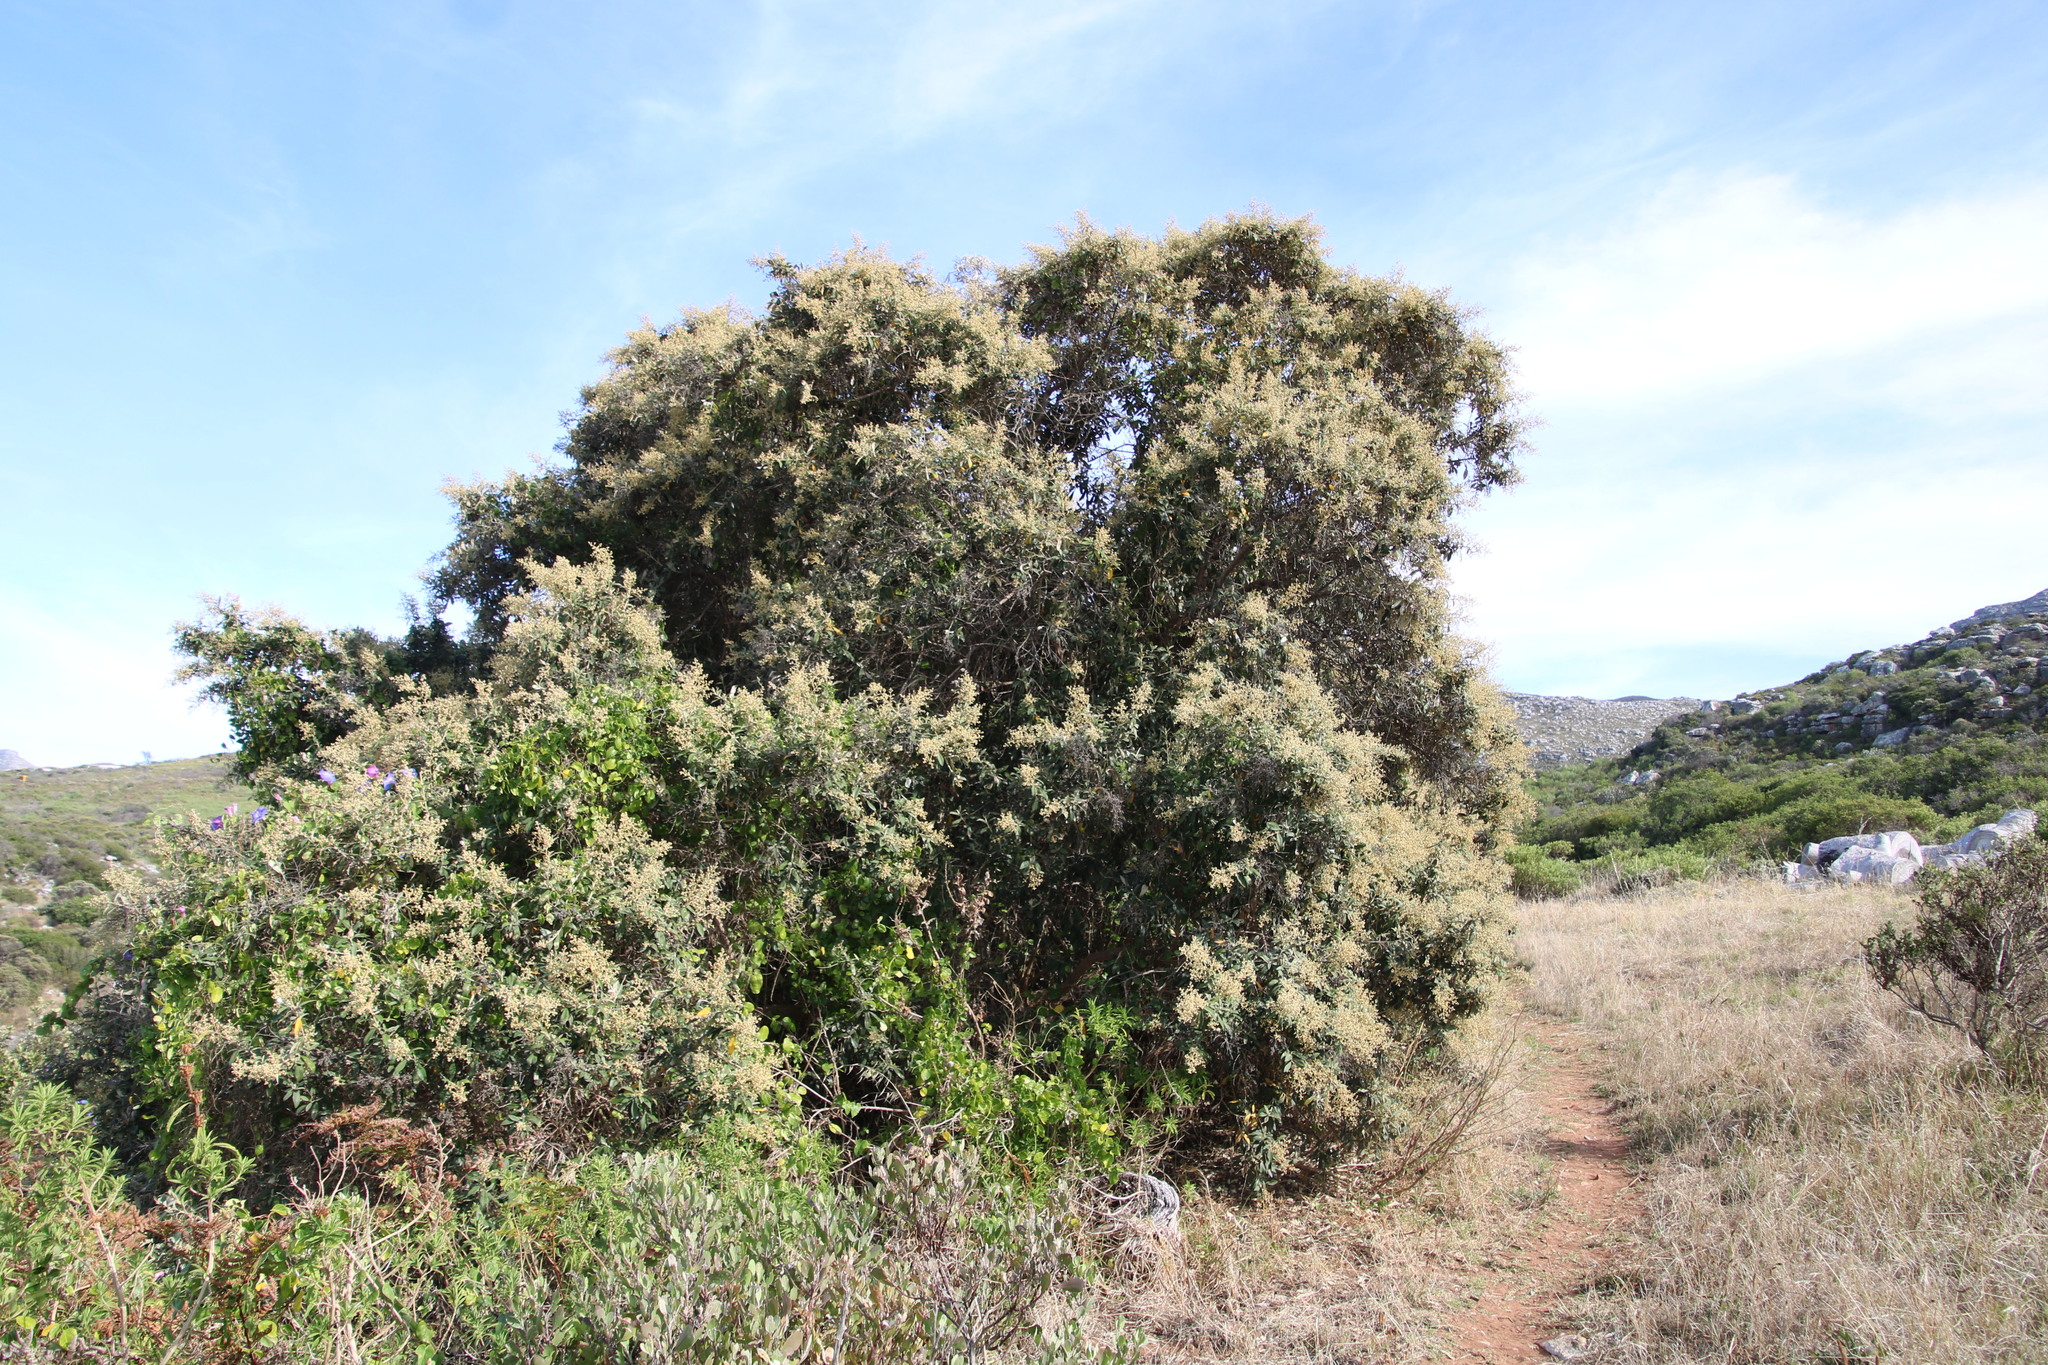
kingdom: Plantae
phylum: Tracheophyta
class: Magnoliopsida
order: Asterales
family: Asteraceae
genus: Tarchonanthus
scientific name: Tarchonanthus littoralis
